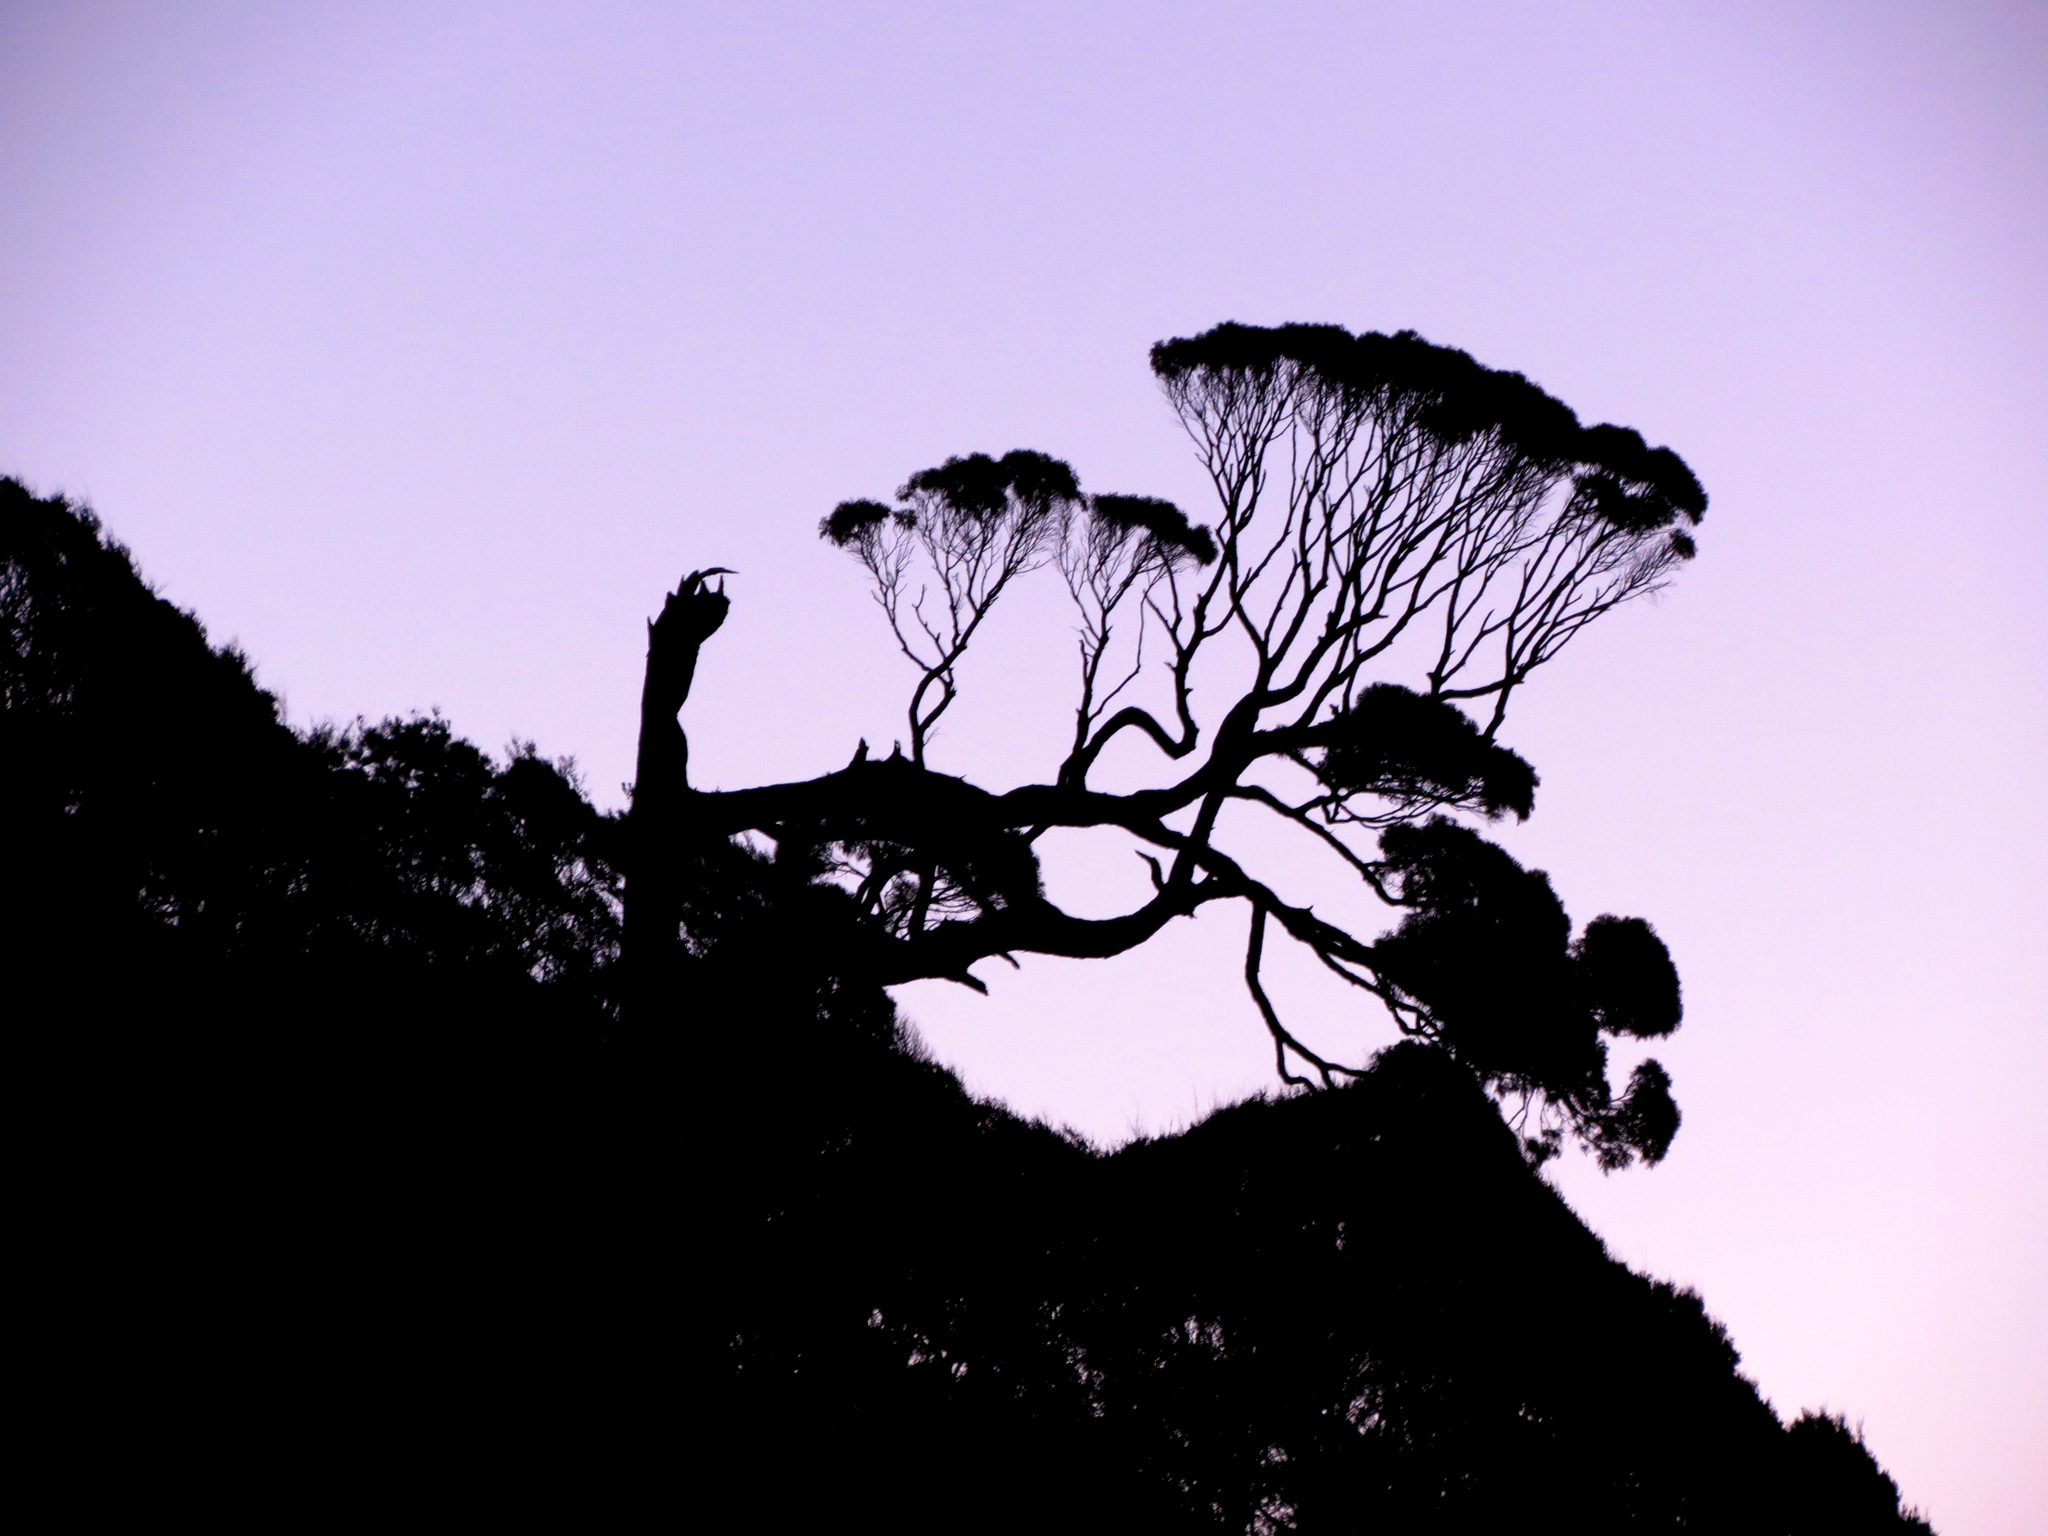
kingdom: Plantae
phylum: Tracheophyta
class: Pinopsida
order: Pinales
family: Podocarpaceae
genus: Dacrydium
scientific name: Dacrydium cupressinum
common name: Red pine
